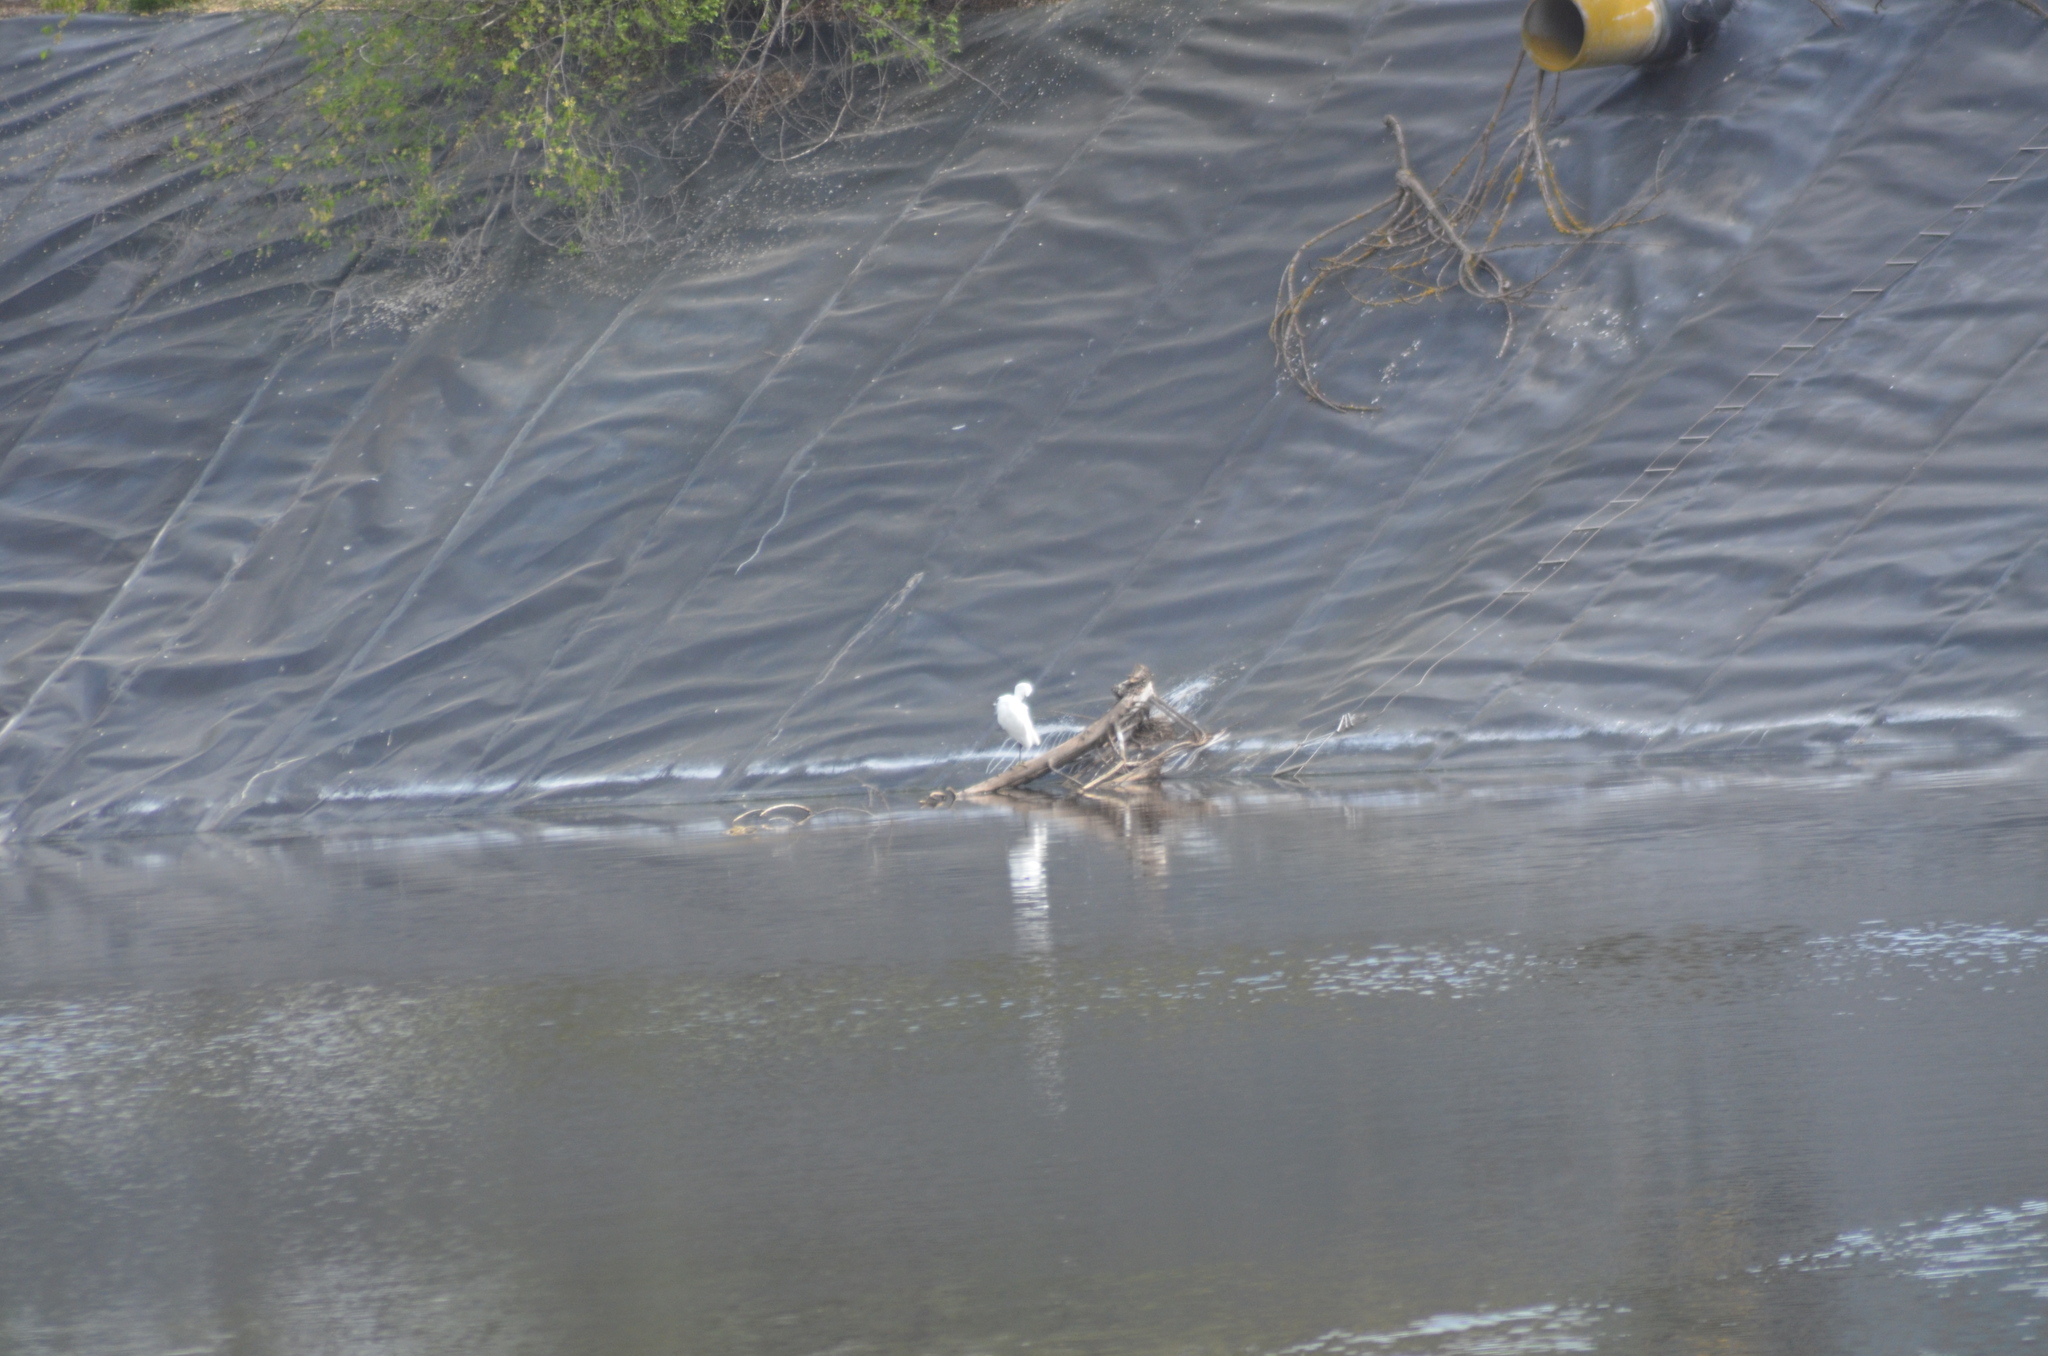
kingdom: Animalia
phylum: Chordata
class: Aves
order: Pelecaniformes
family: Ardeidae
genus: Egretta
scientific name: Egretta garzetta
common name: Little egret
